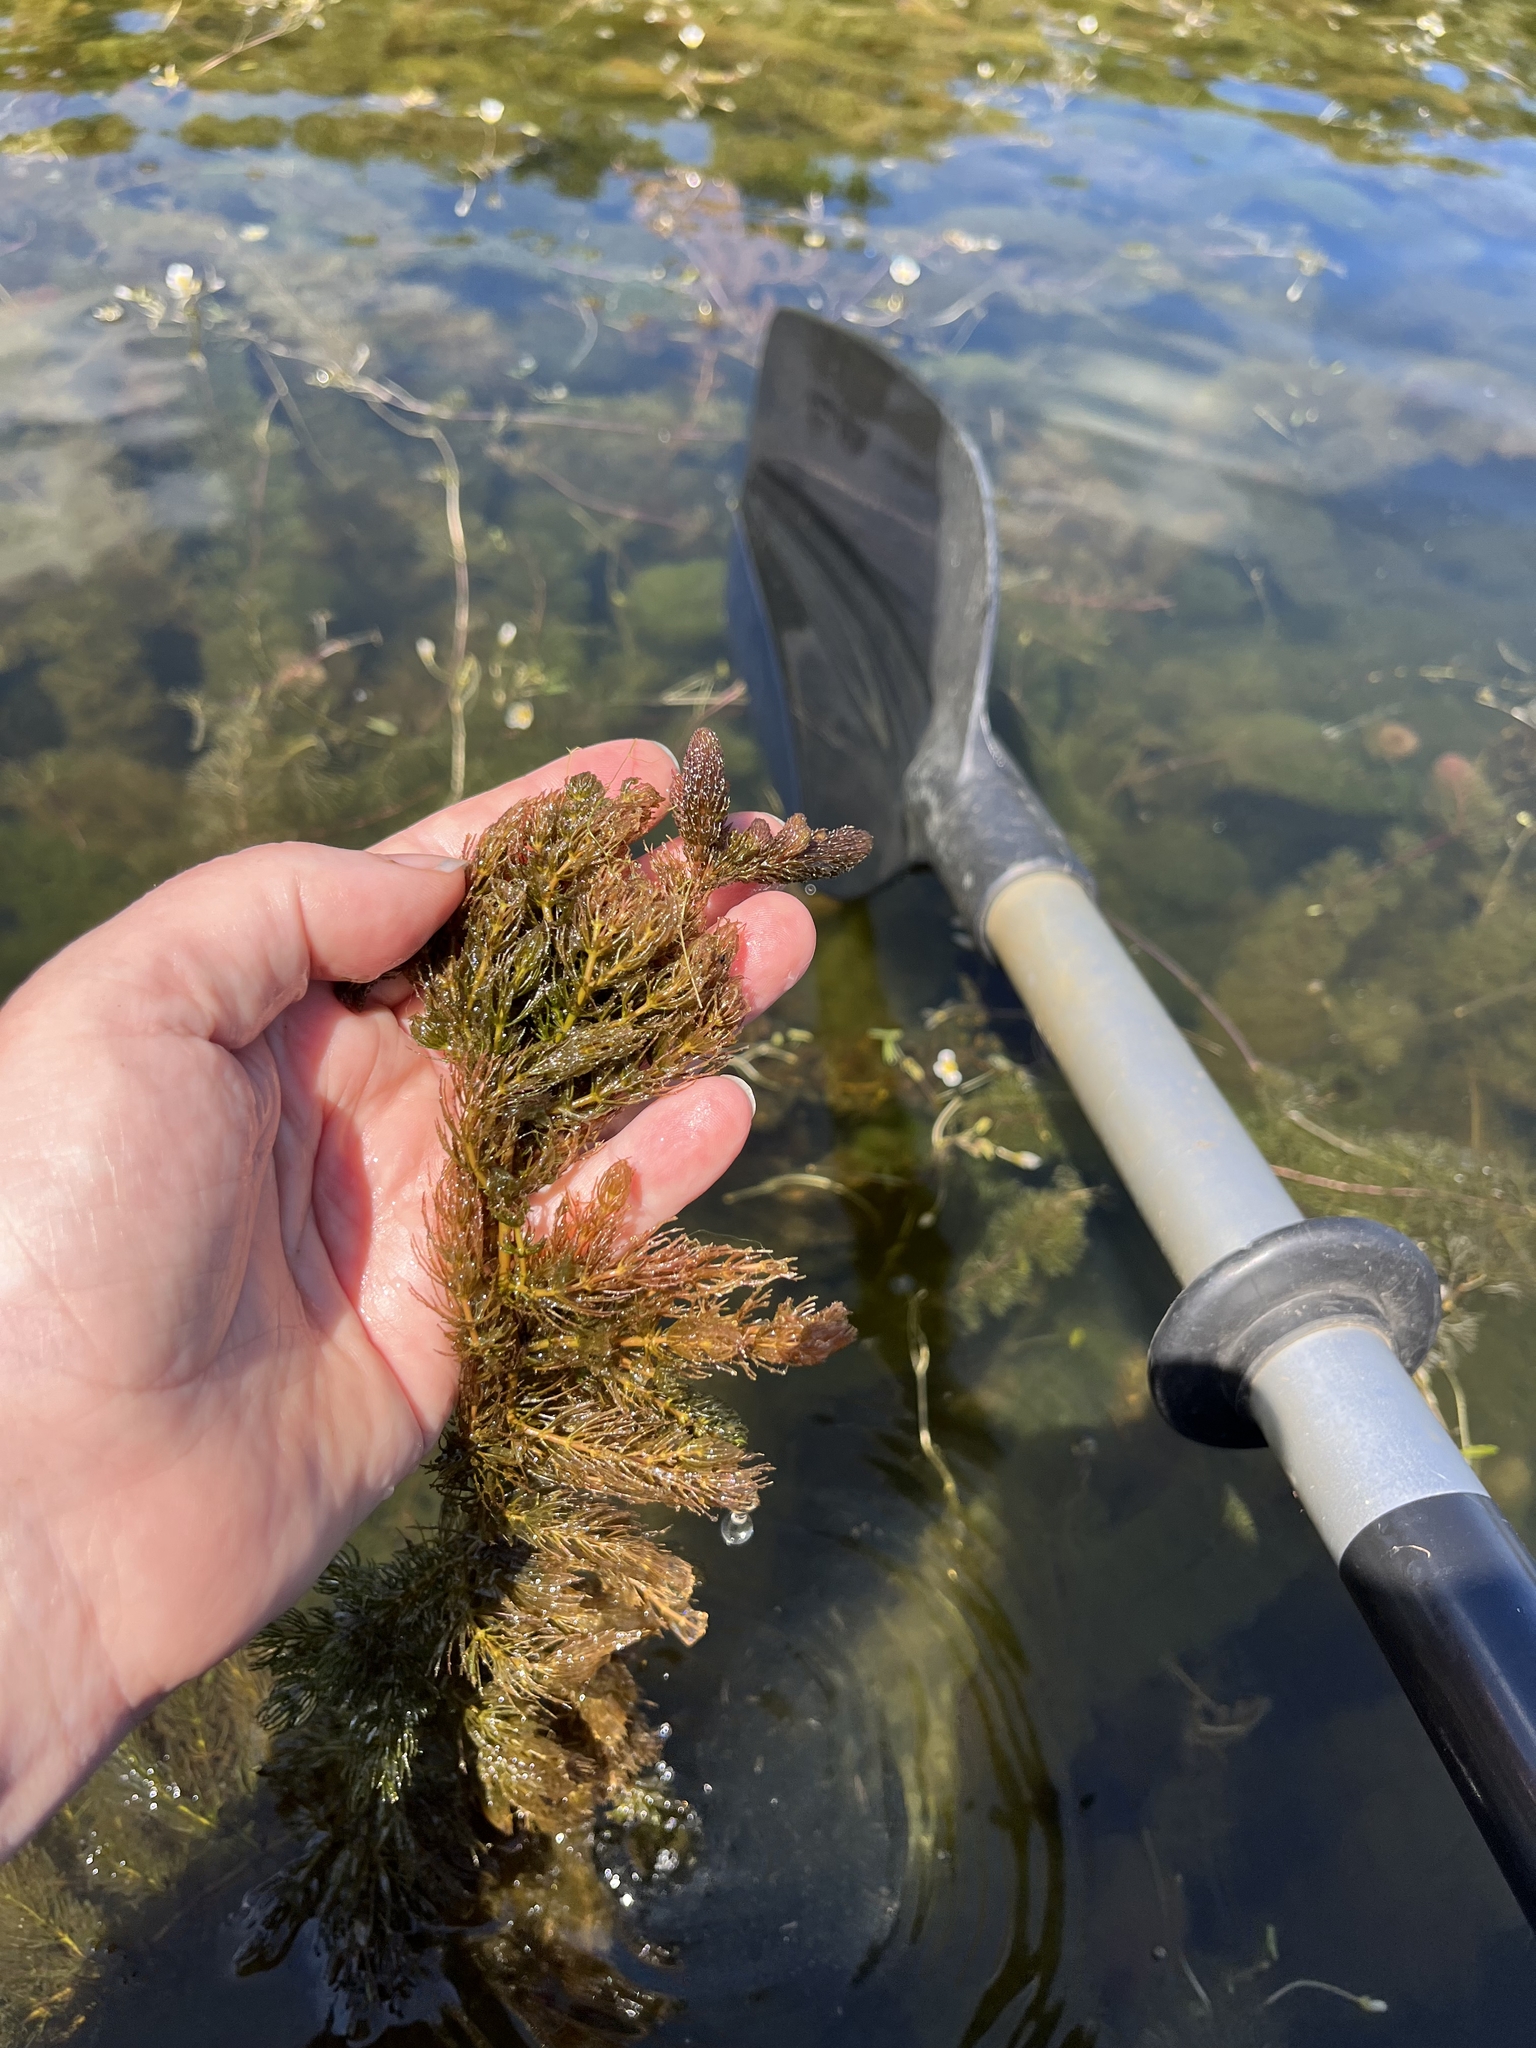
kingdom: Plantae
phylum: Tracheophyta
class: Magnoliopsida
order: Ceratophyllales
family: Ceratophyllaceae
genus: Ceratophyllum
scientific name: Ceratophyllum demersum
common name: Rigid hornwort
